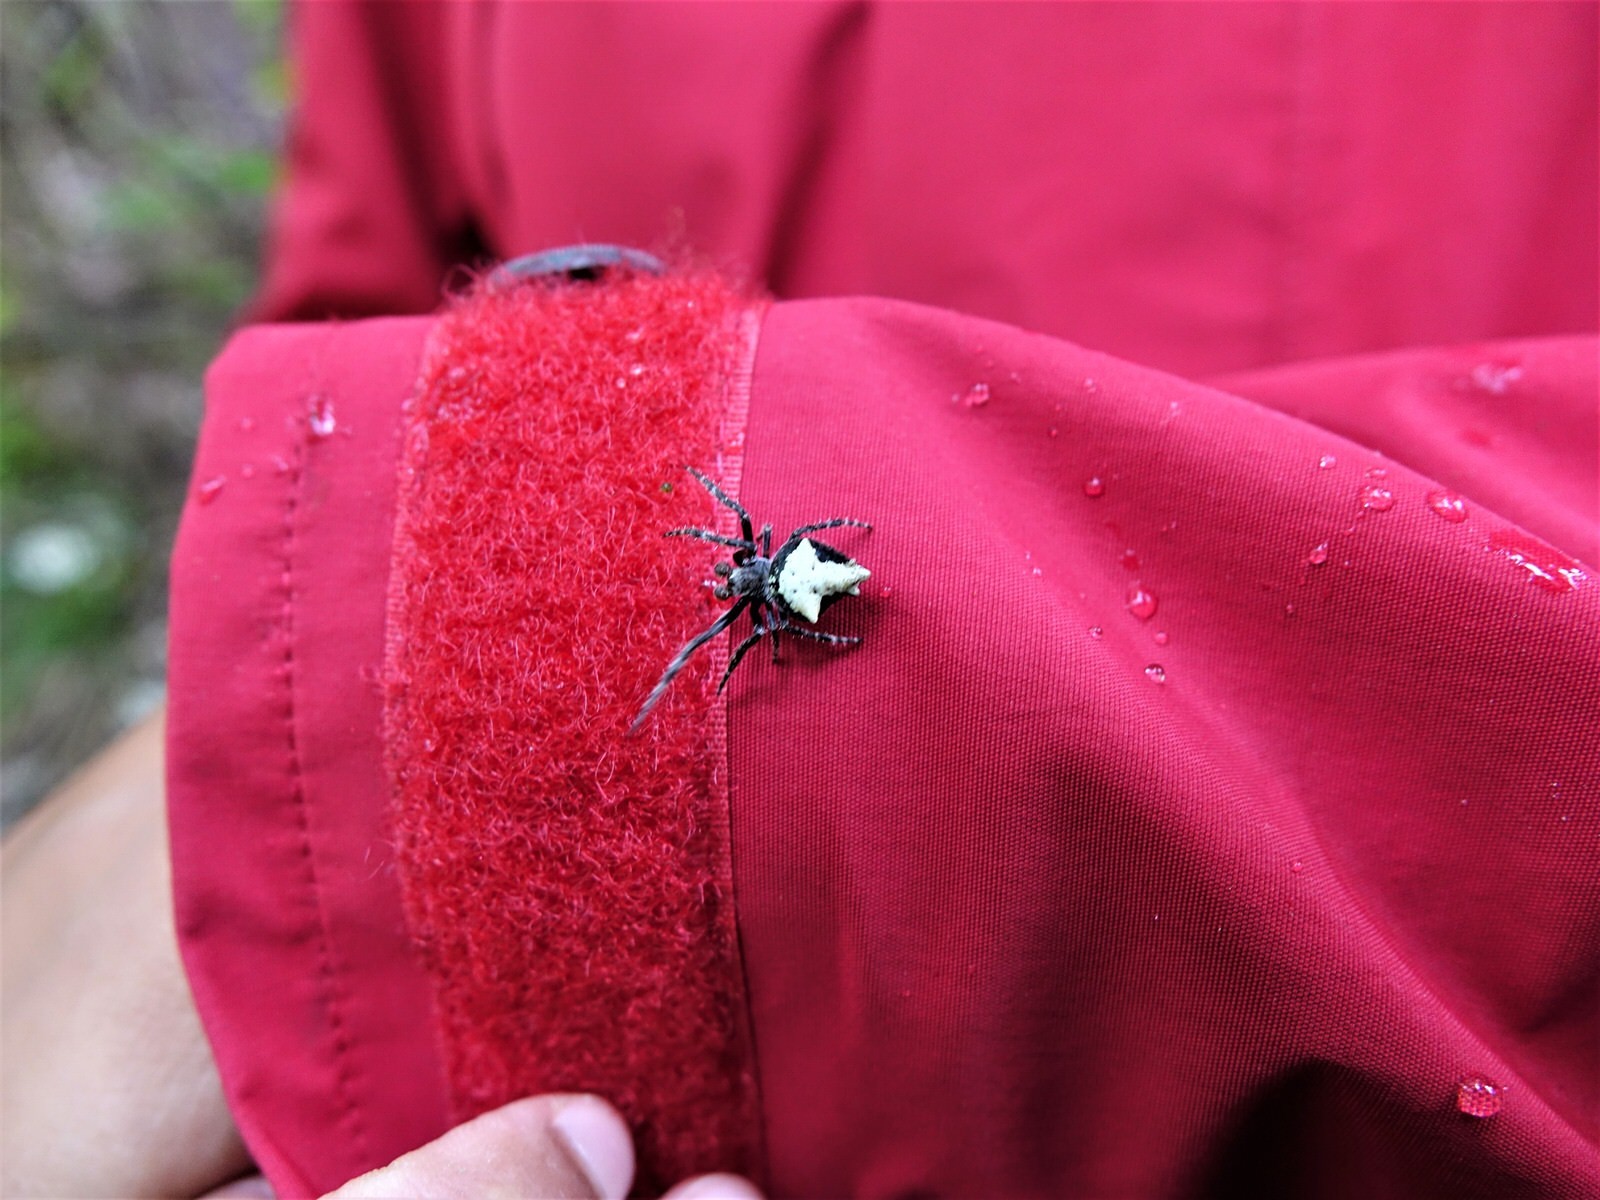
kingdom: Animalia
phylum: Arthropoda
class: Arachnida
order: Araneae
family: Araneidae
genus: Eriophora
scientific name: Eriophora pustulosa
